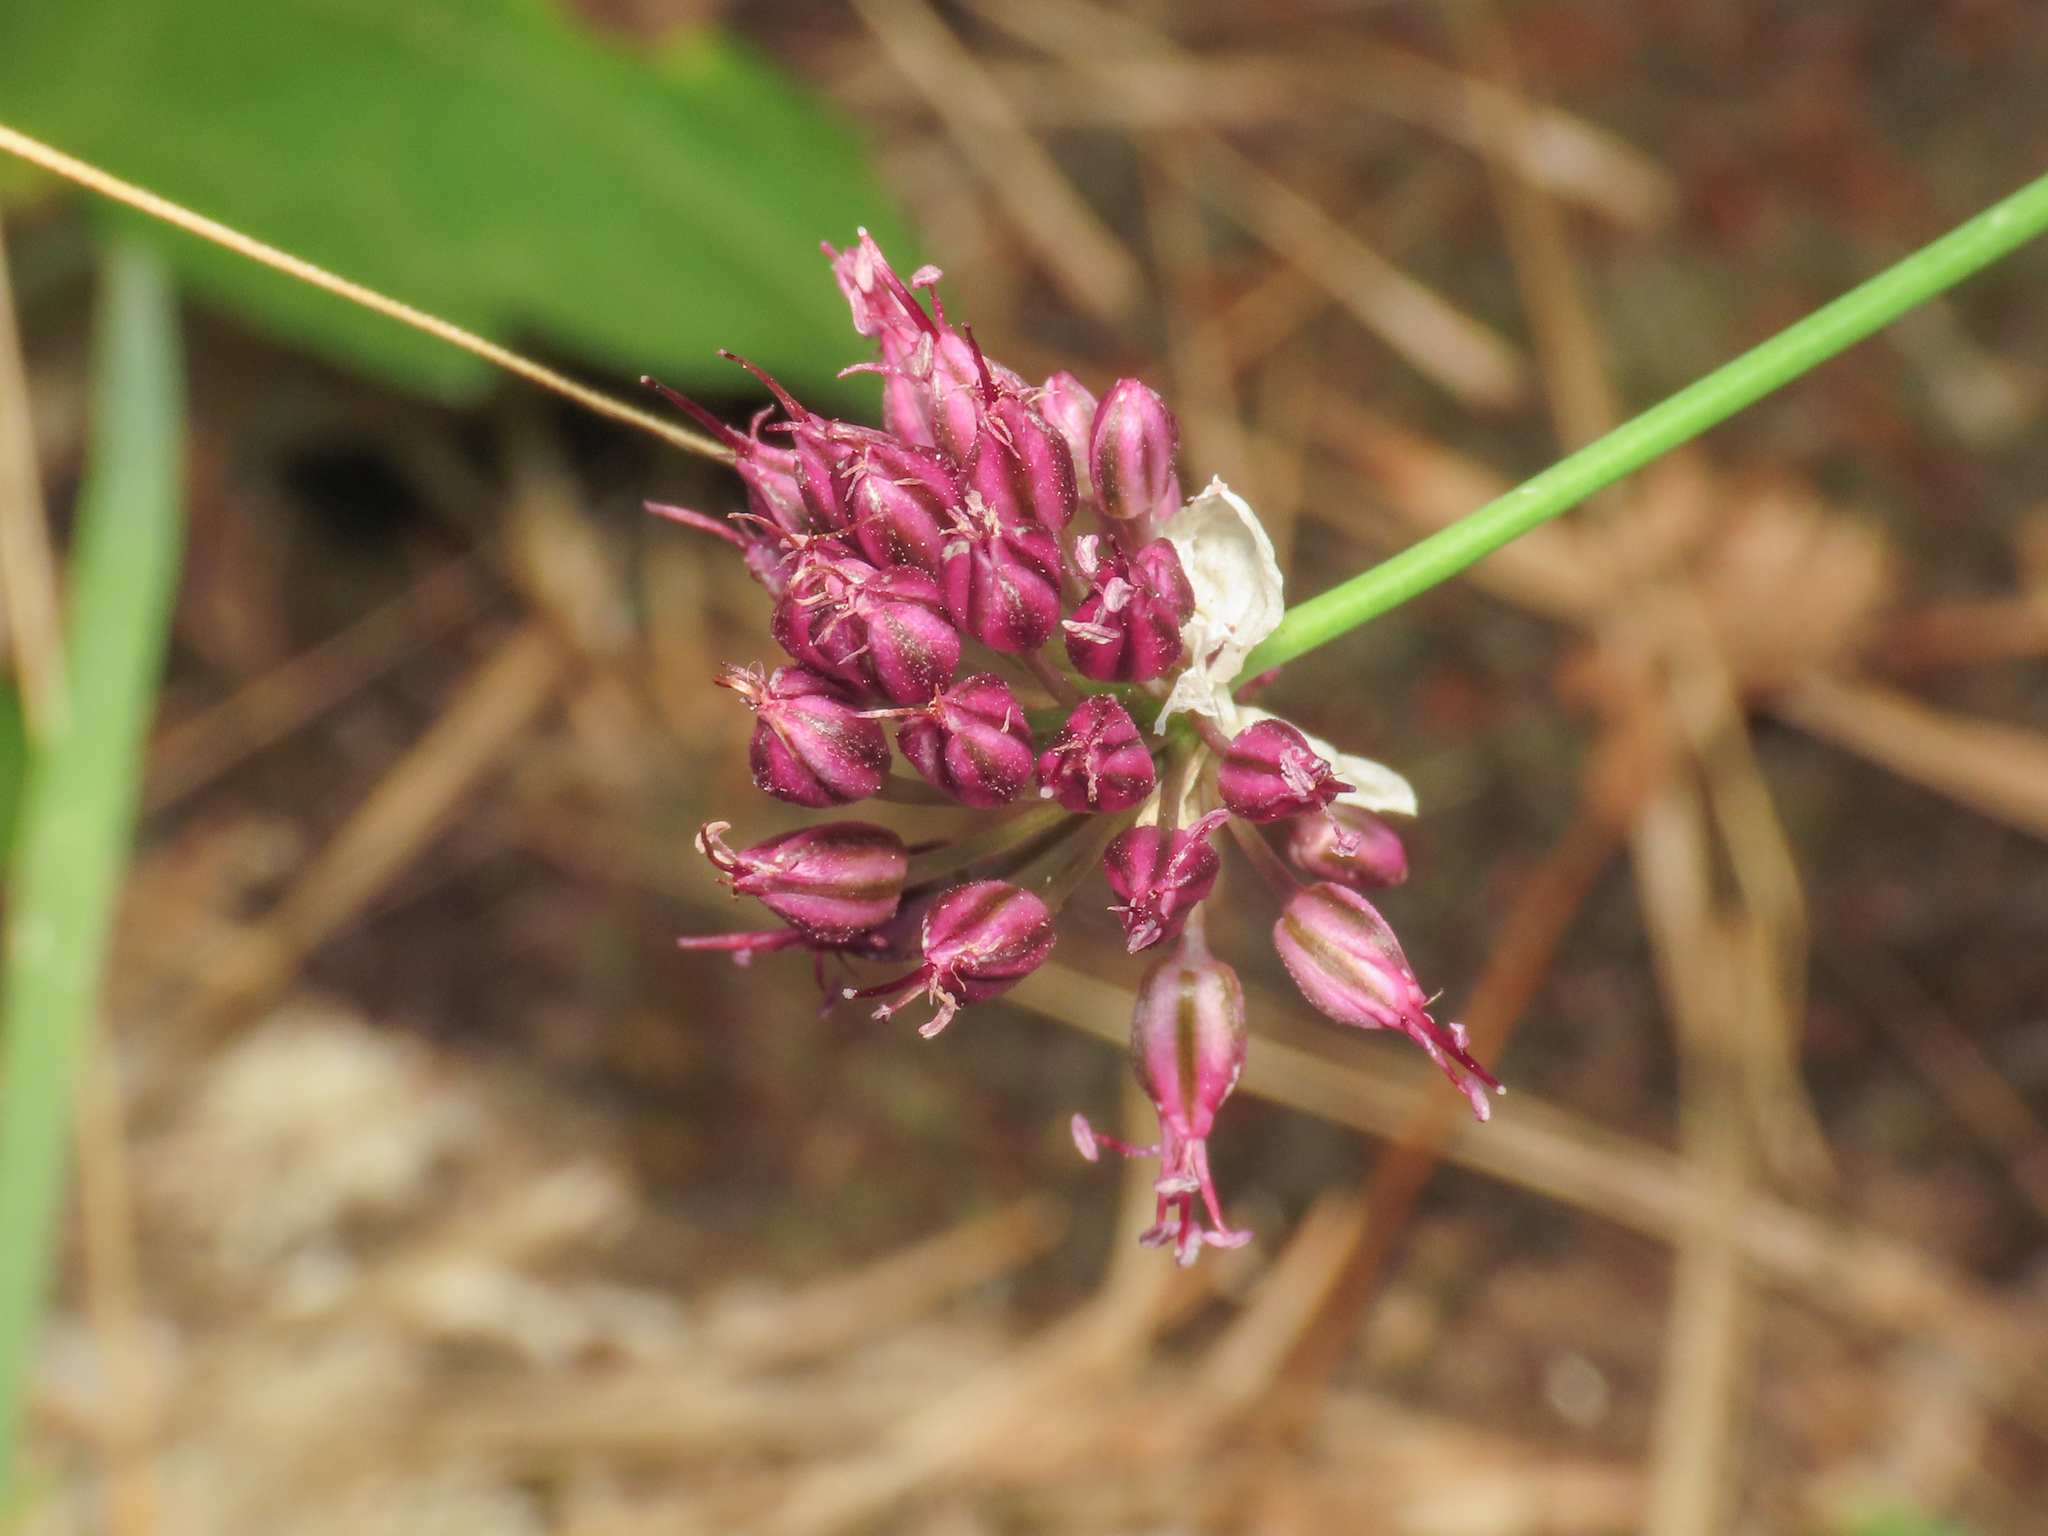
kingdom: Plantae
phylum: Tracheophyta
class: Liliopsida
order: Asparagales
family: Amaryllidaceae
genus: Allium
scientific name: Allium sphaerocephalon
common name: Round-headed leek
